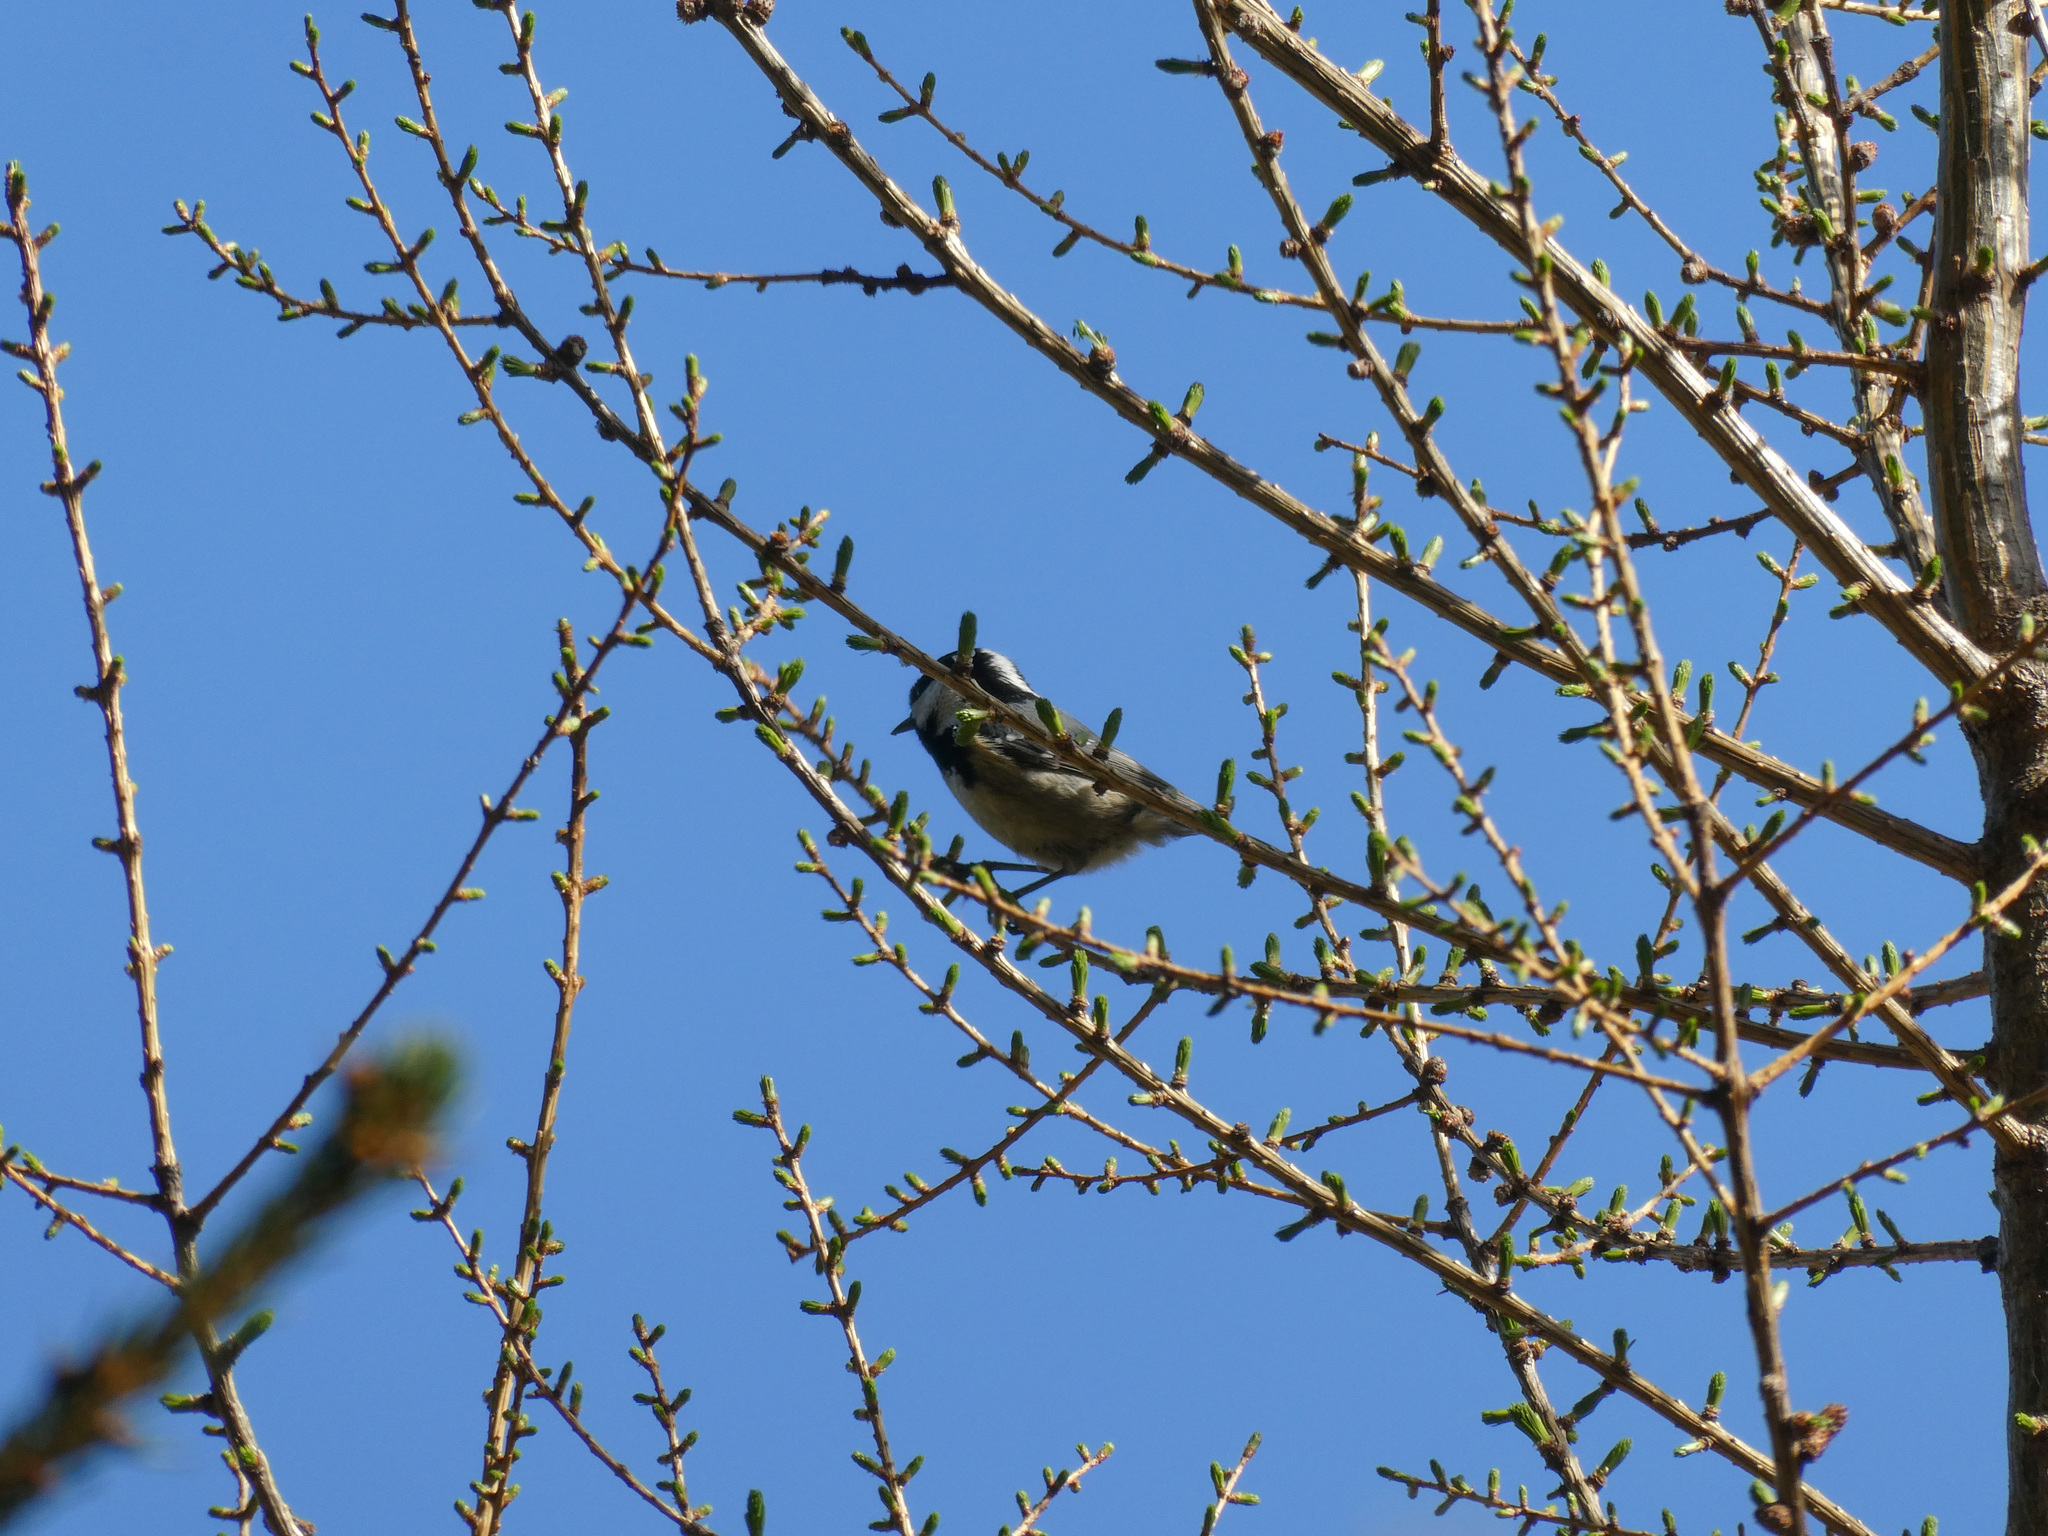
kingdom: Animalia
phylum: Chordata
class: Aves
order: Passeriformes
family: Paridae
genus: Periparus
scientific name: Periparus ater
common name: Coal tit
